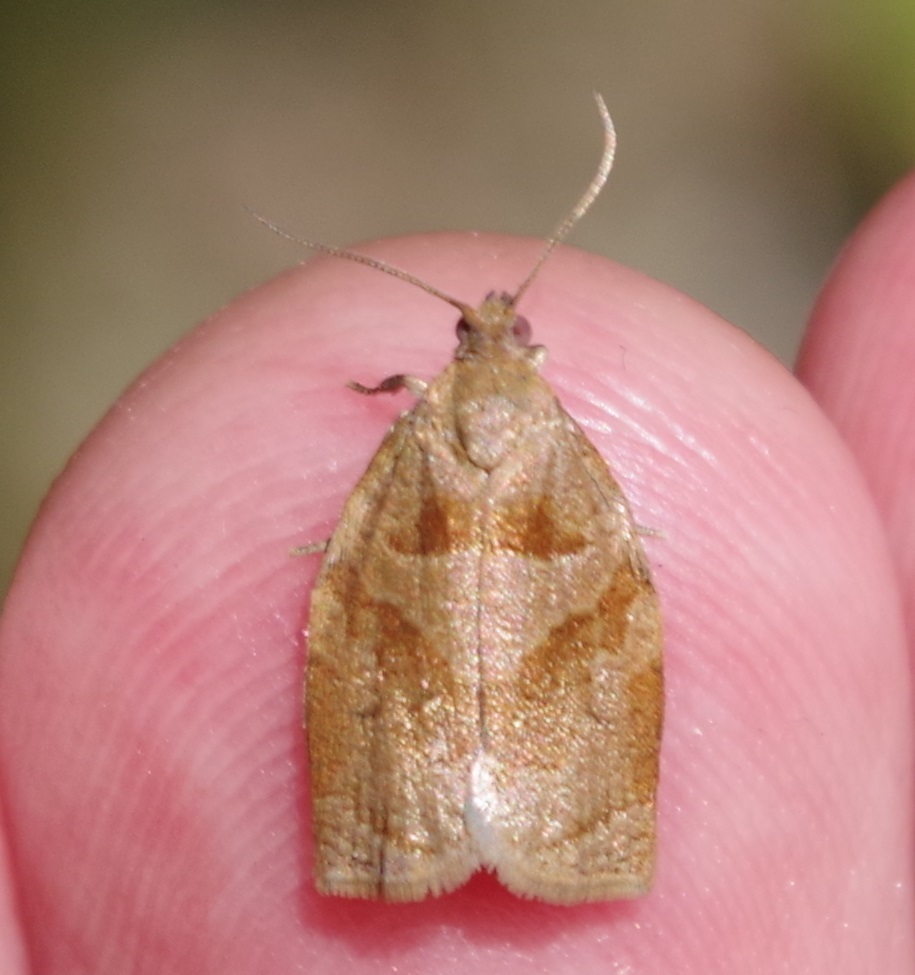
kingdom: Animalia
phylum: Arthropoda
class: Insecta
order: Lepidoptera
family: Tortricidae
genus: Archips
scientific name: Archips rosana
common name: Rose tortrix
